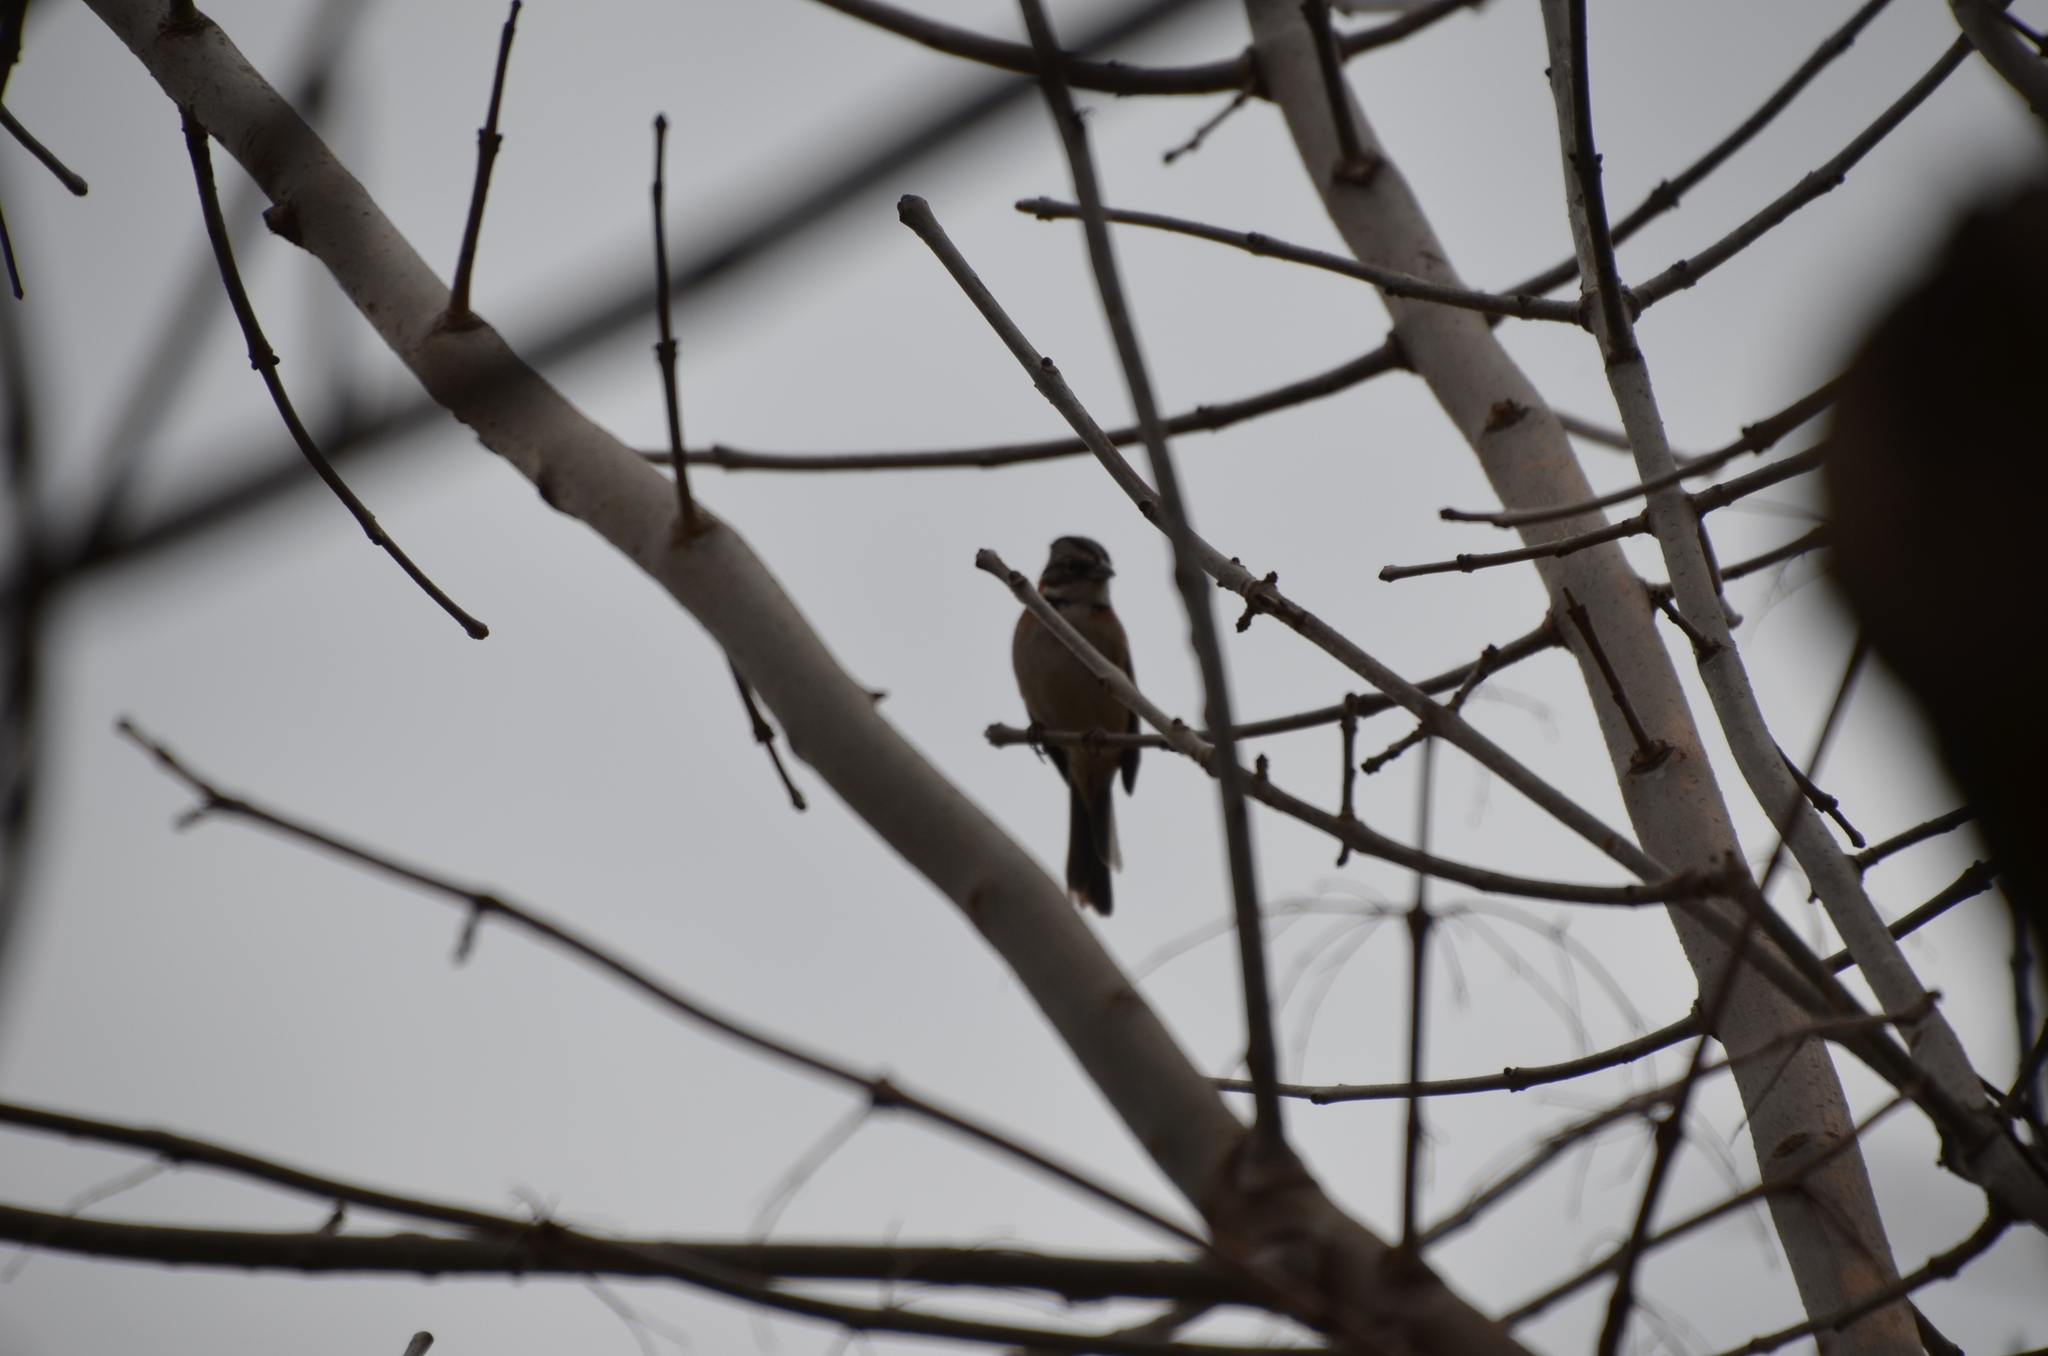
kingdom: Animalia
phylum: Chordata
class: Aves
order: Passeriformes
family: Passerellidae
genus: Zonotrichia
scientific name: Zonotrichia capensis
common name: Rufous-collared sparrow
